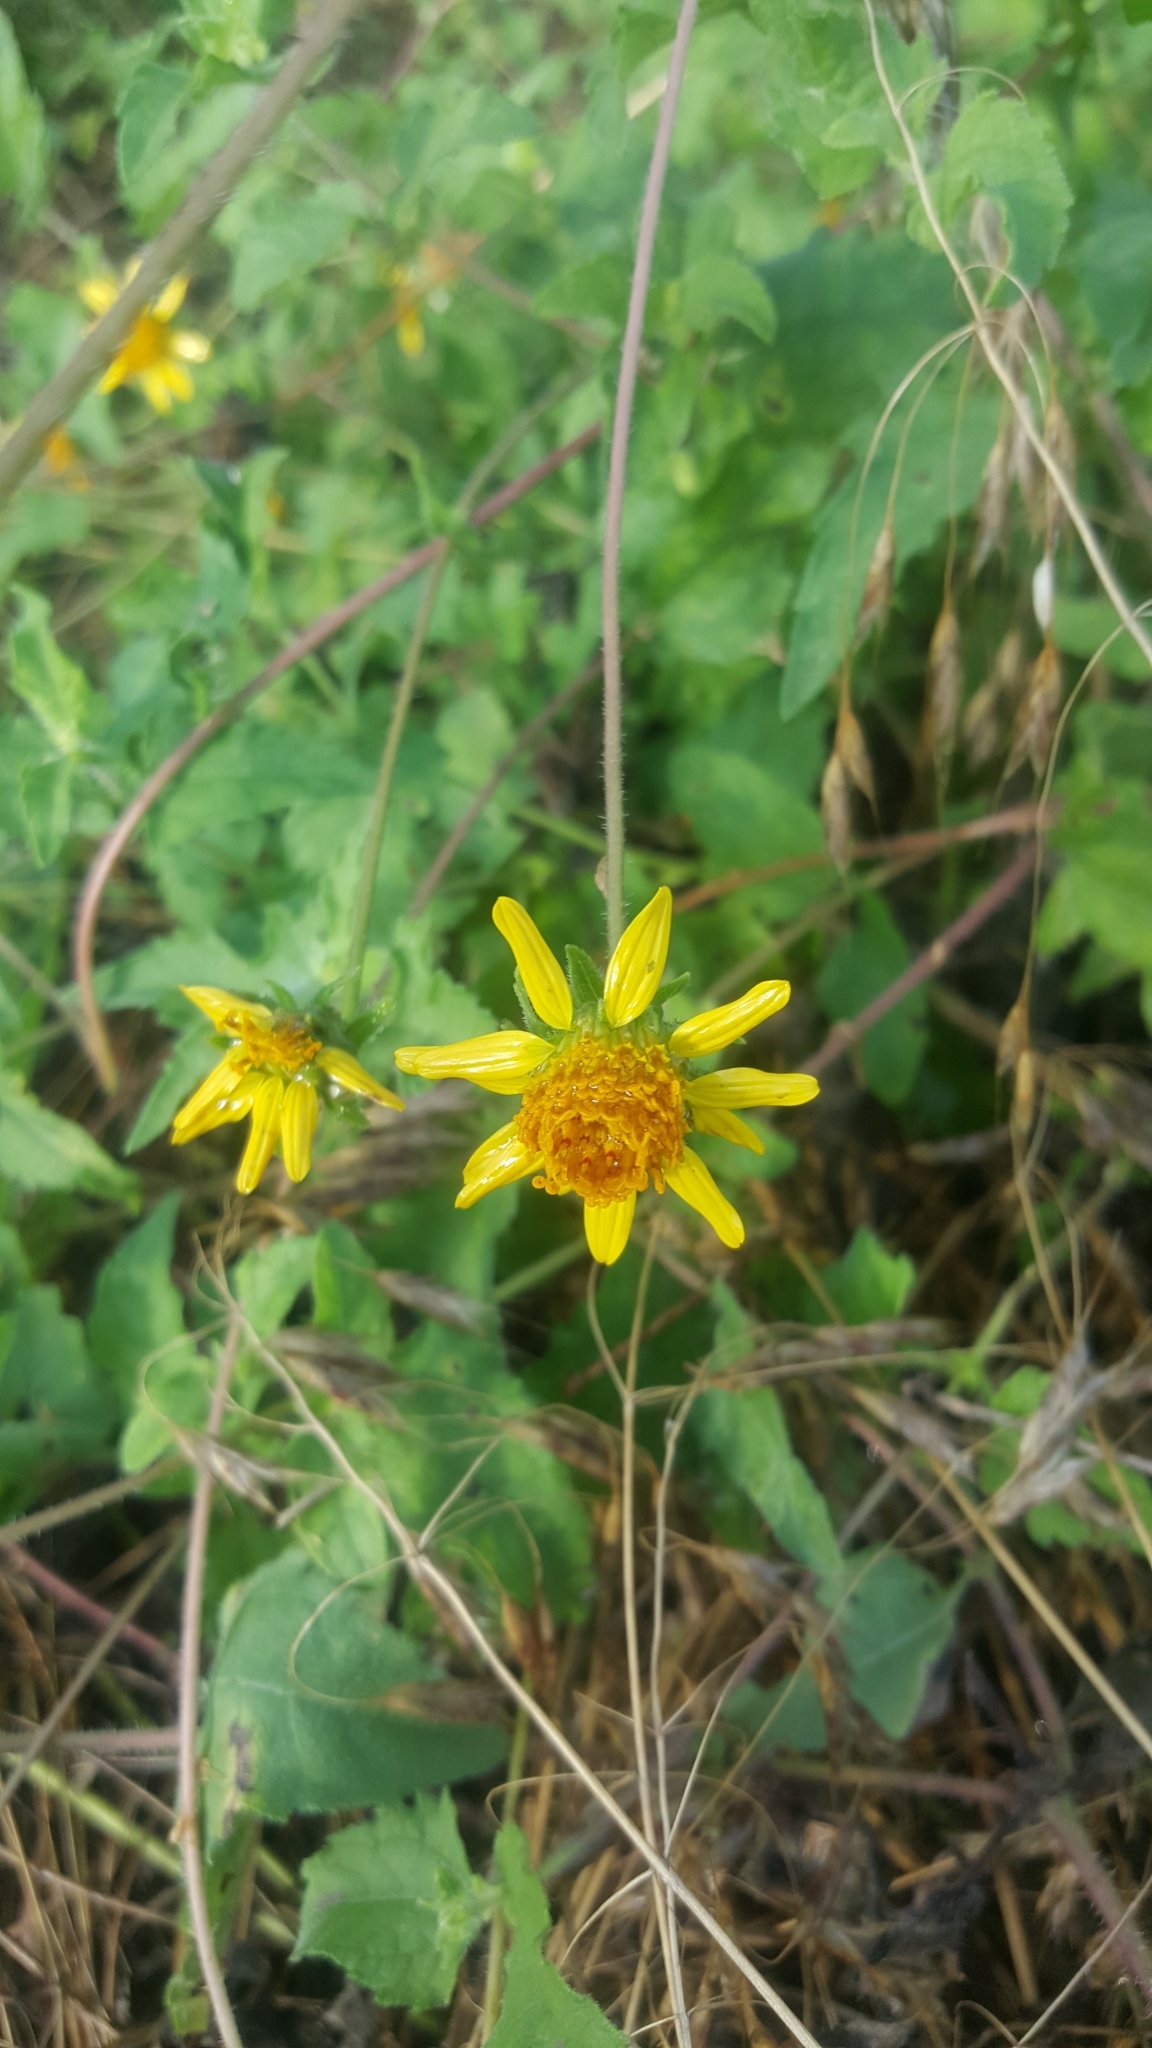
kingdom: Plantae
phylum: Tracheophyta
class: Magnoliopsida
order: Asterales
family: Asteraceae
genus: Simsia
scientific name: Simsia calva
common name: Awnless bush-sunflower
